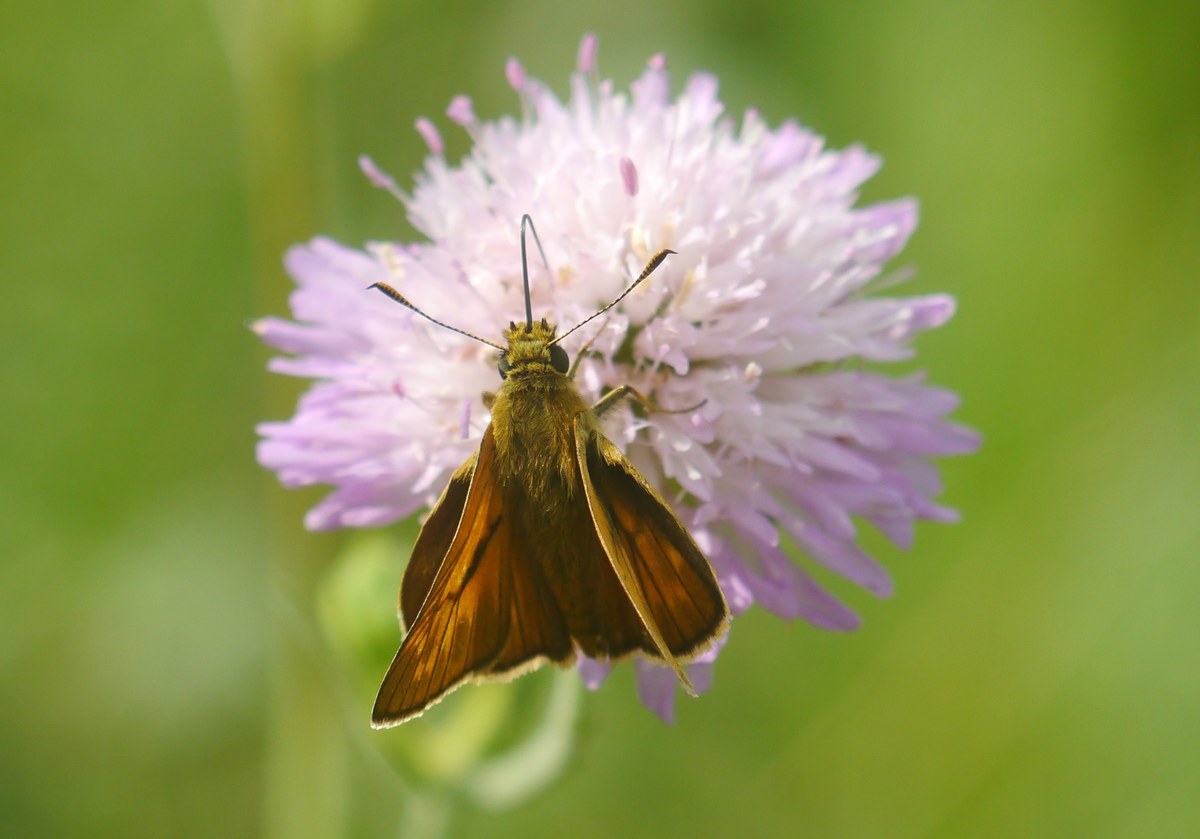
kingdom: Animalia
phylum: Arthropoda
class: Insecta
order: Lepidoptera
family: Hesperiidae
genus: Ochlodes
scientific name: Ochlodes venata
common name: Large skipper
